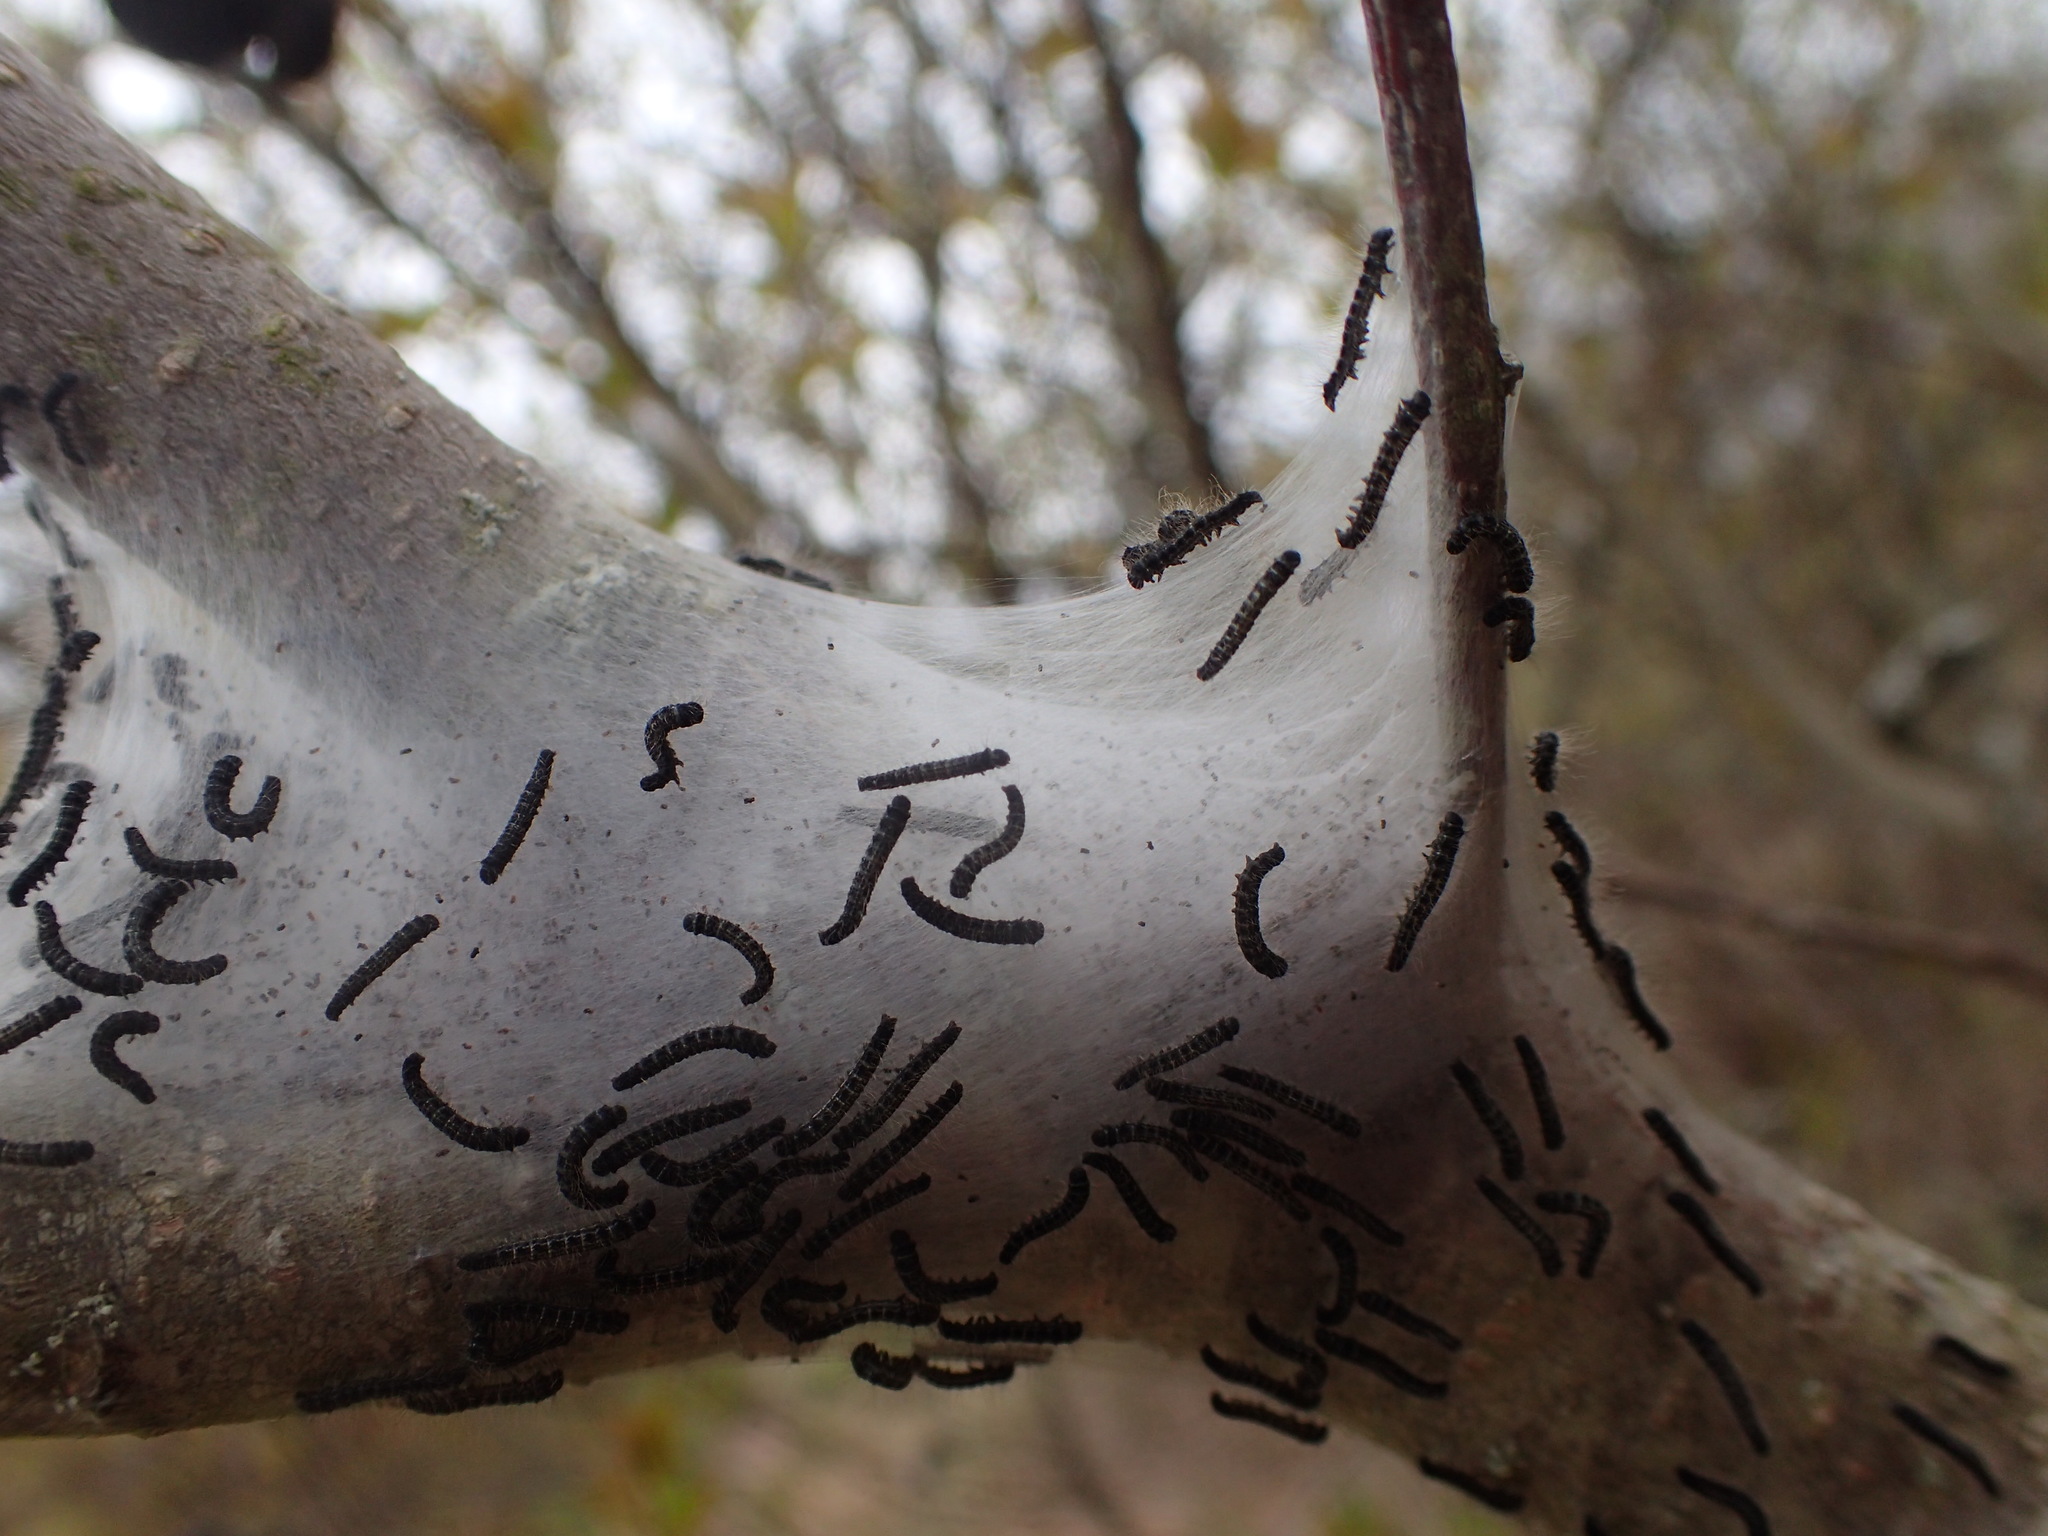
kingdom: Animalia
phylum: Arthropoda
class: Insecta
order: Lepidoptera
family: Lasiocampidae
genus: Malacosoma
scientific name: Malacosoma americana
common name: Eastern tent caterpillar moth
